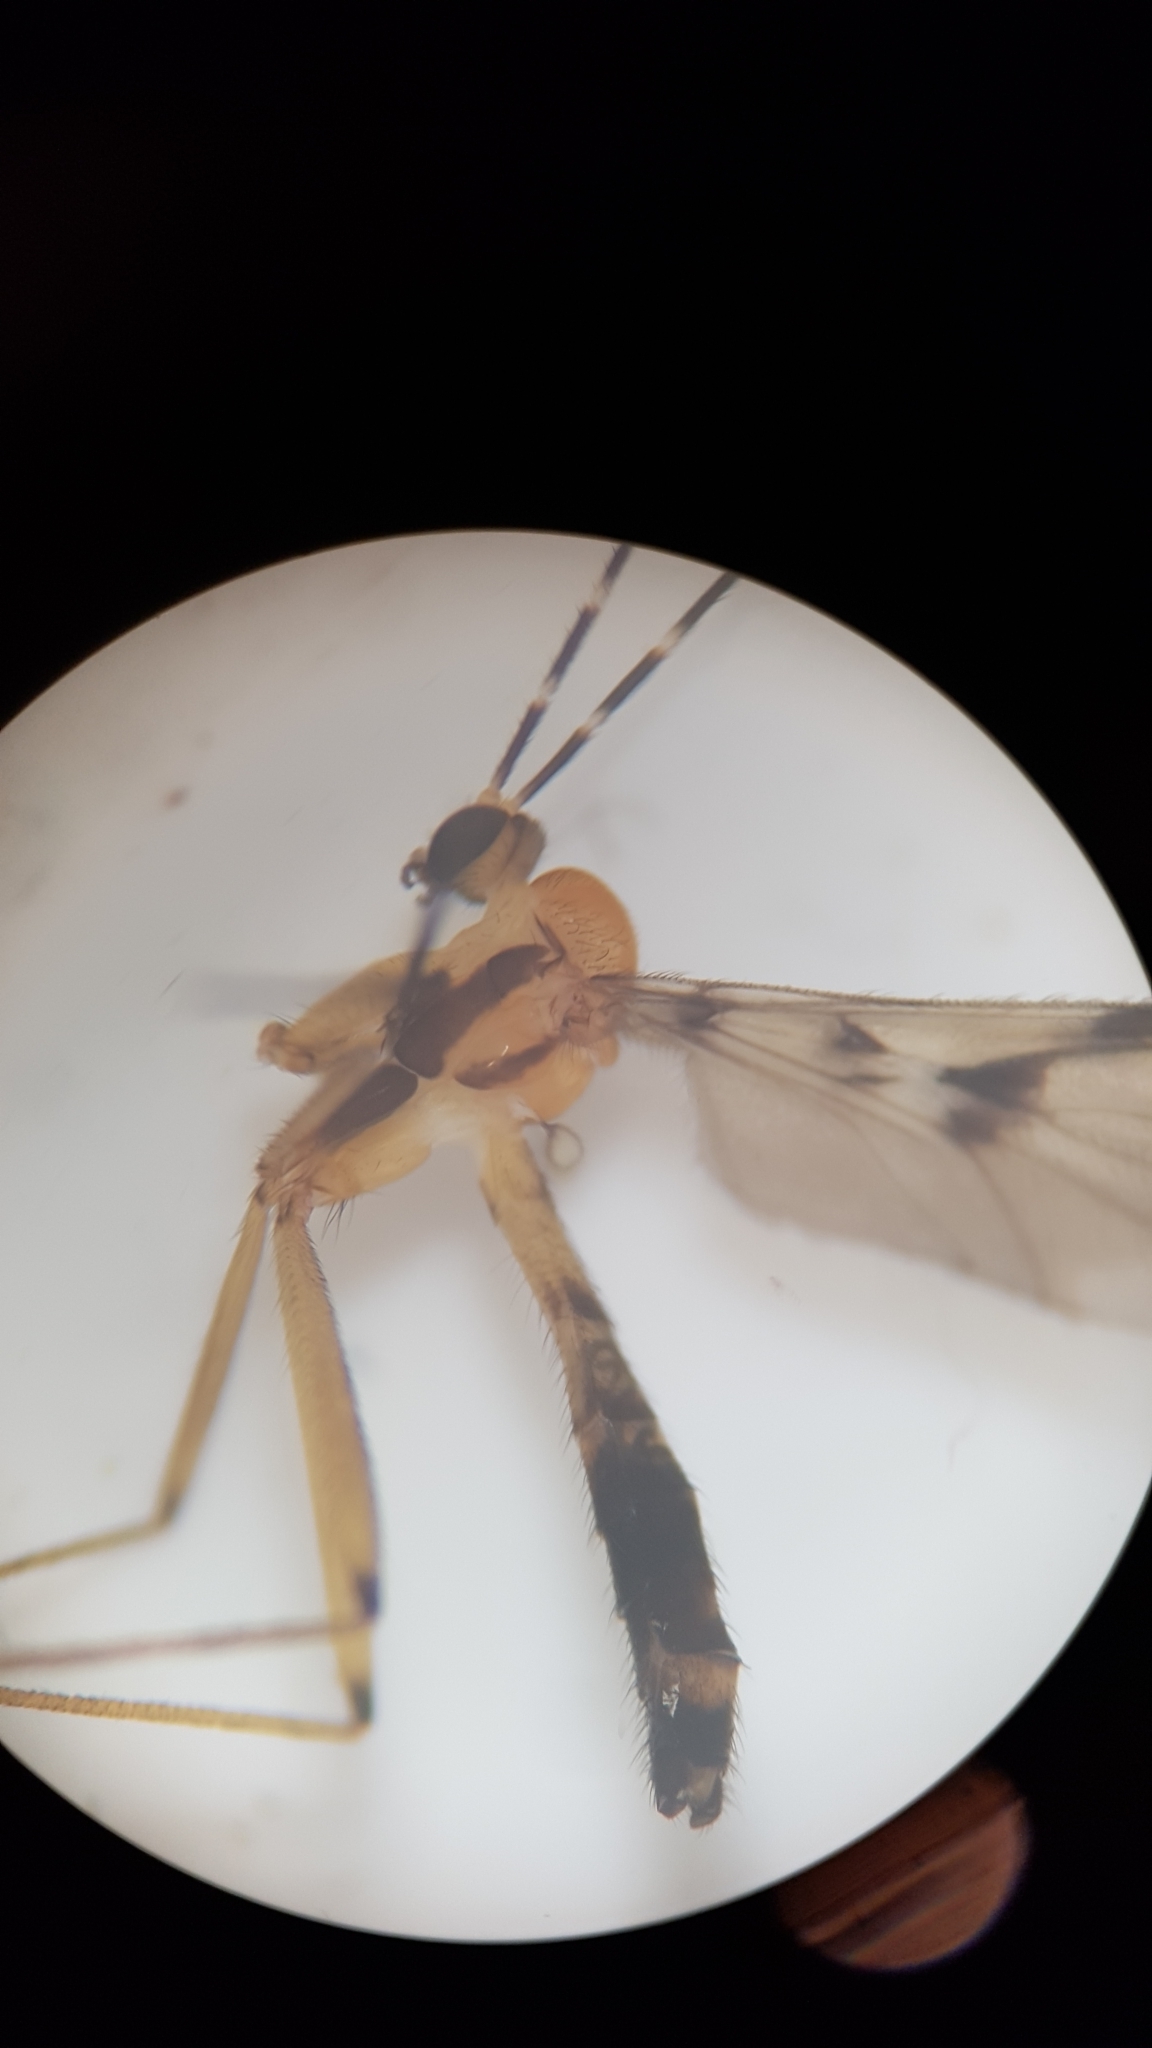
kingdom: Animalia
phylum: Arthropoda
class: Insecta
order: Diptera
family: Keroplatidae
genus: Chiasmoneura
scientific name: Chiasmoneura milligani
